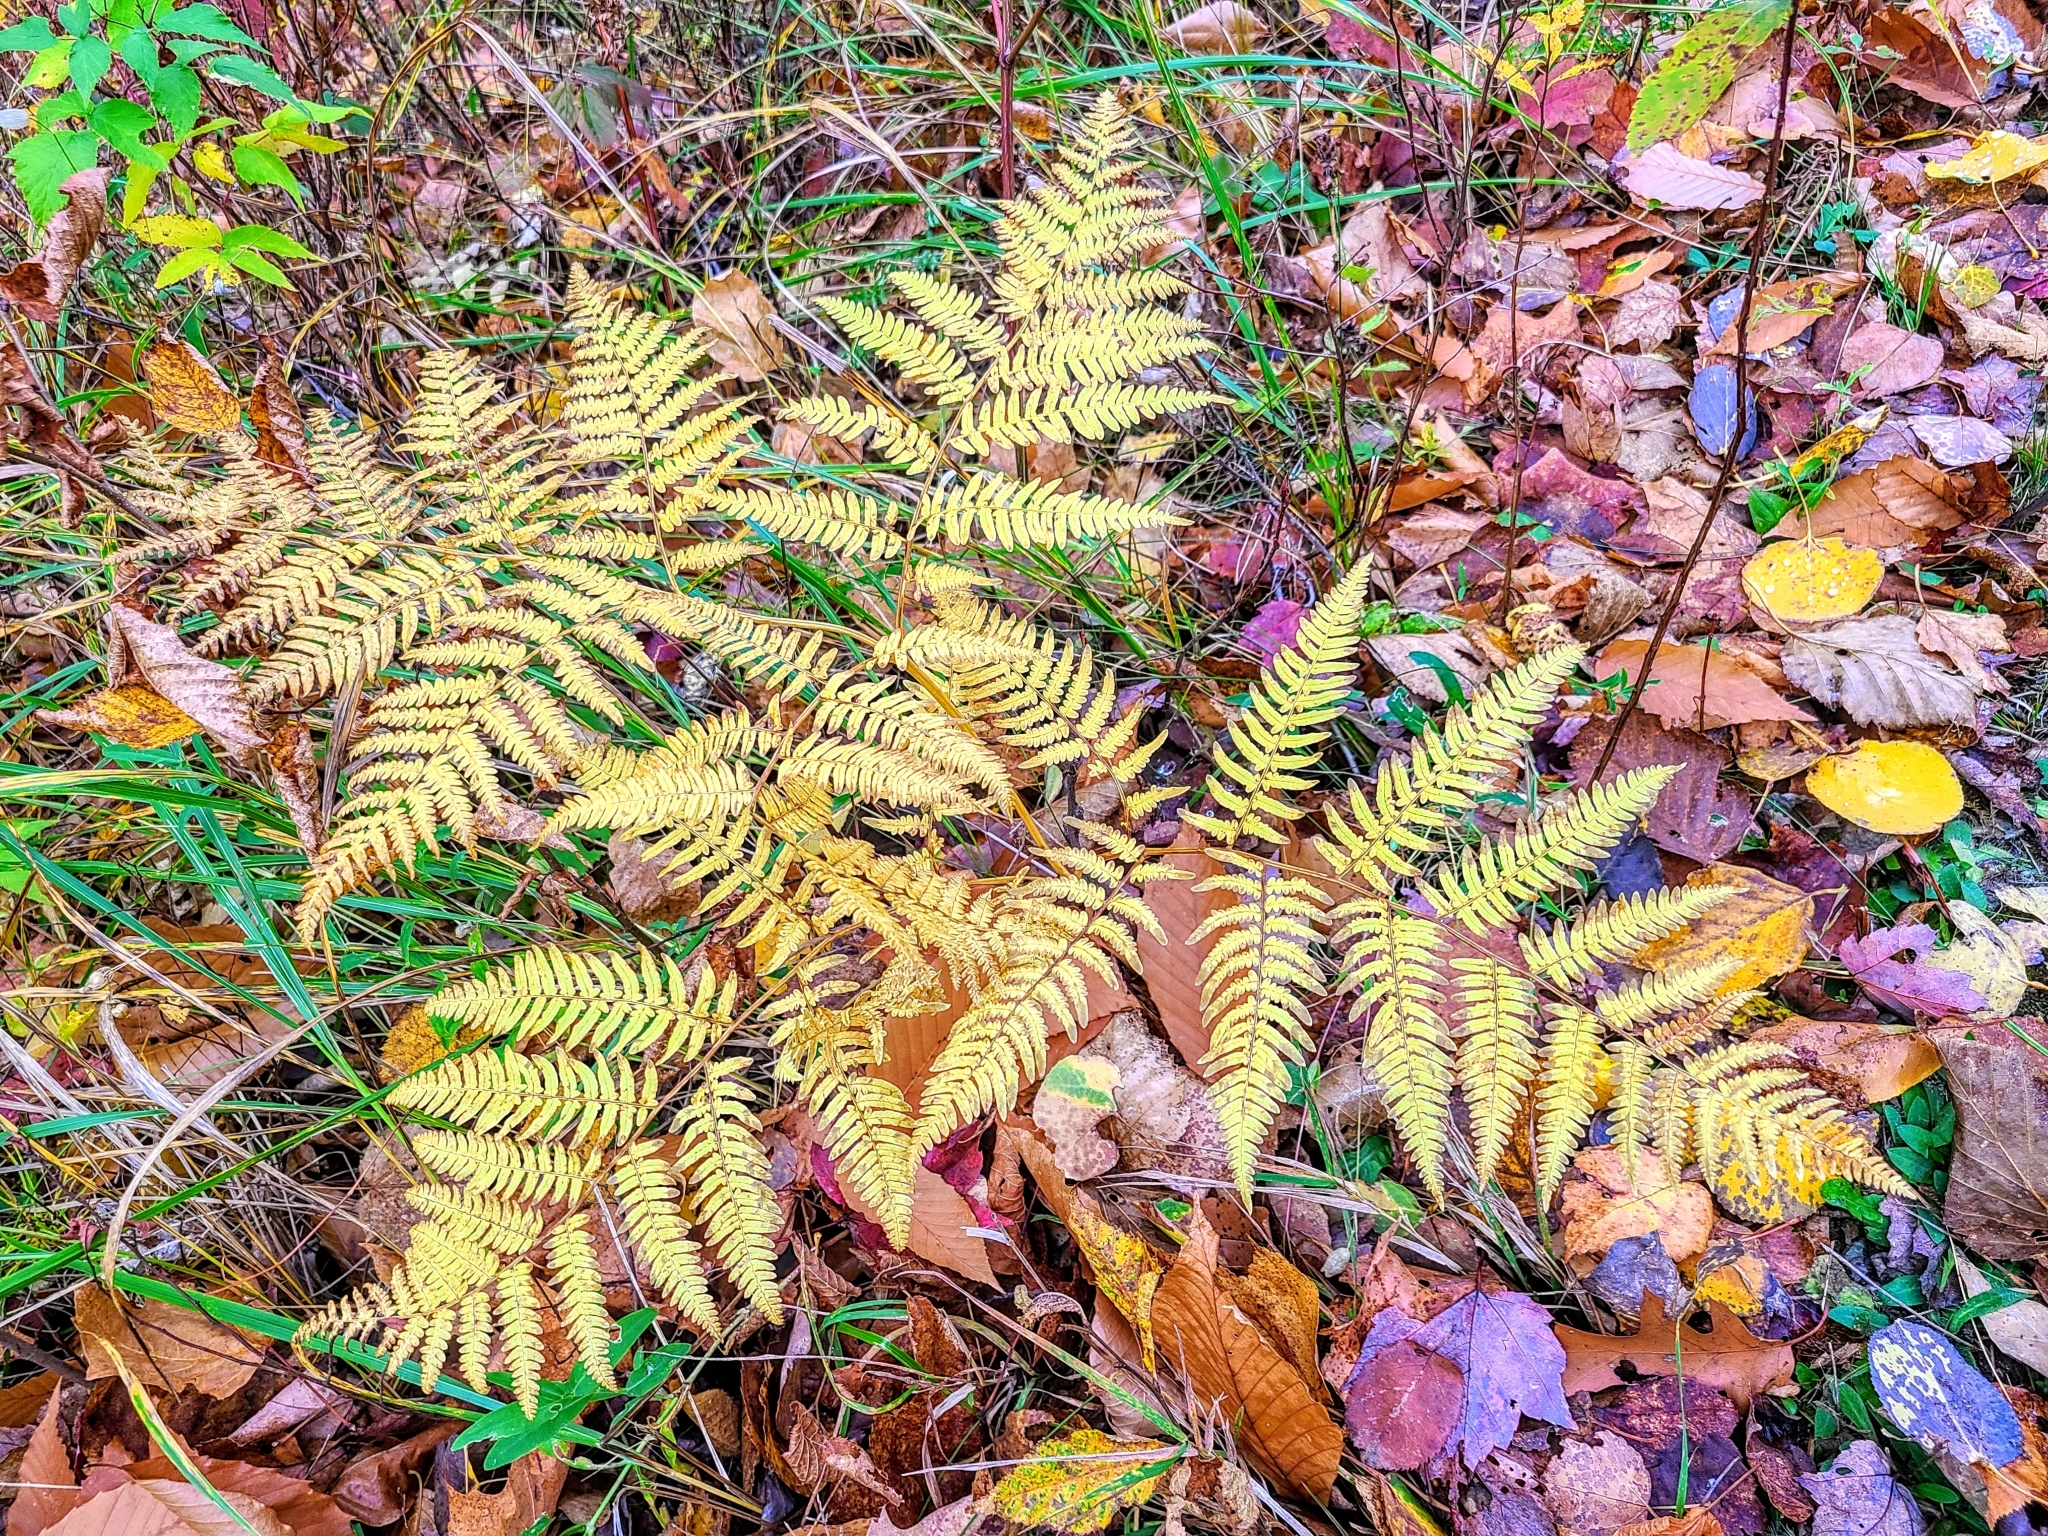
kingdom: Plantae
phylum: Tracheophyta
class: Polypodiopsida
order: Polypodiales
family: Dennstaedtiaceae
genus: Pteridium
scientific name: Pteridium aquilinum
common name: Bracken
